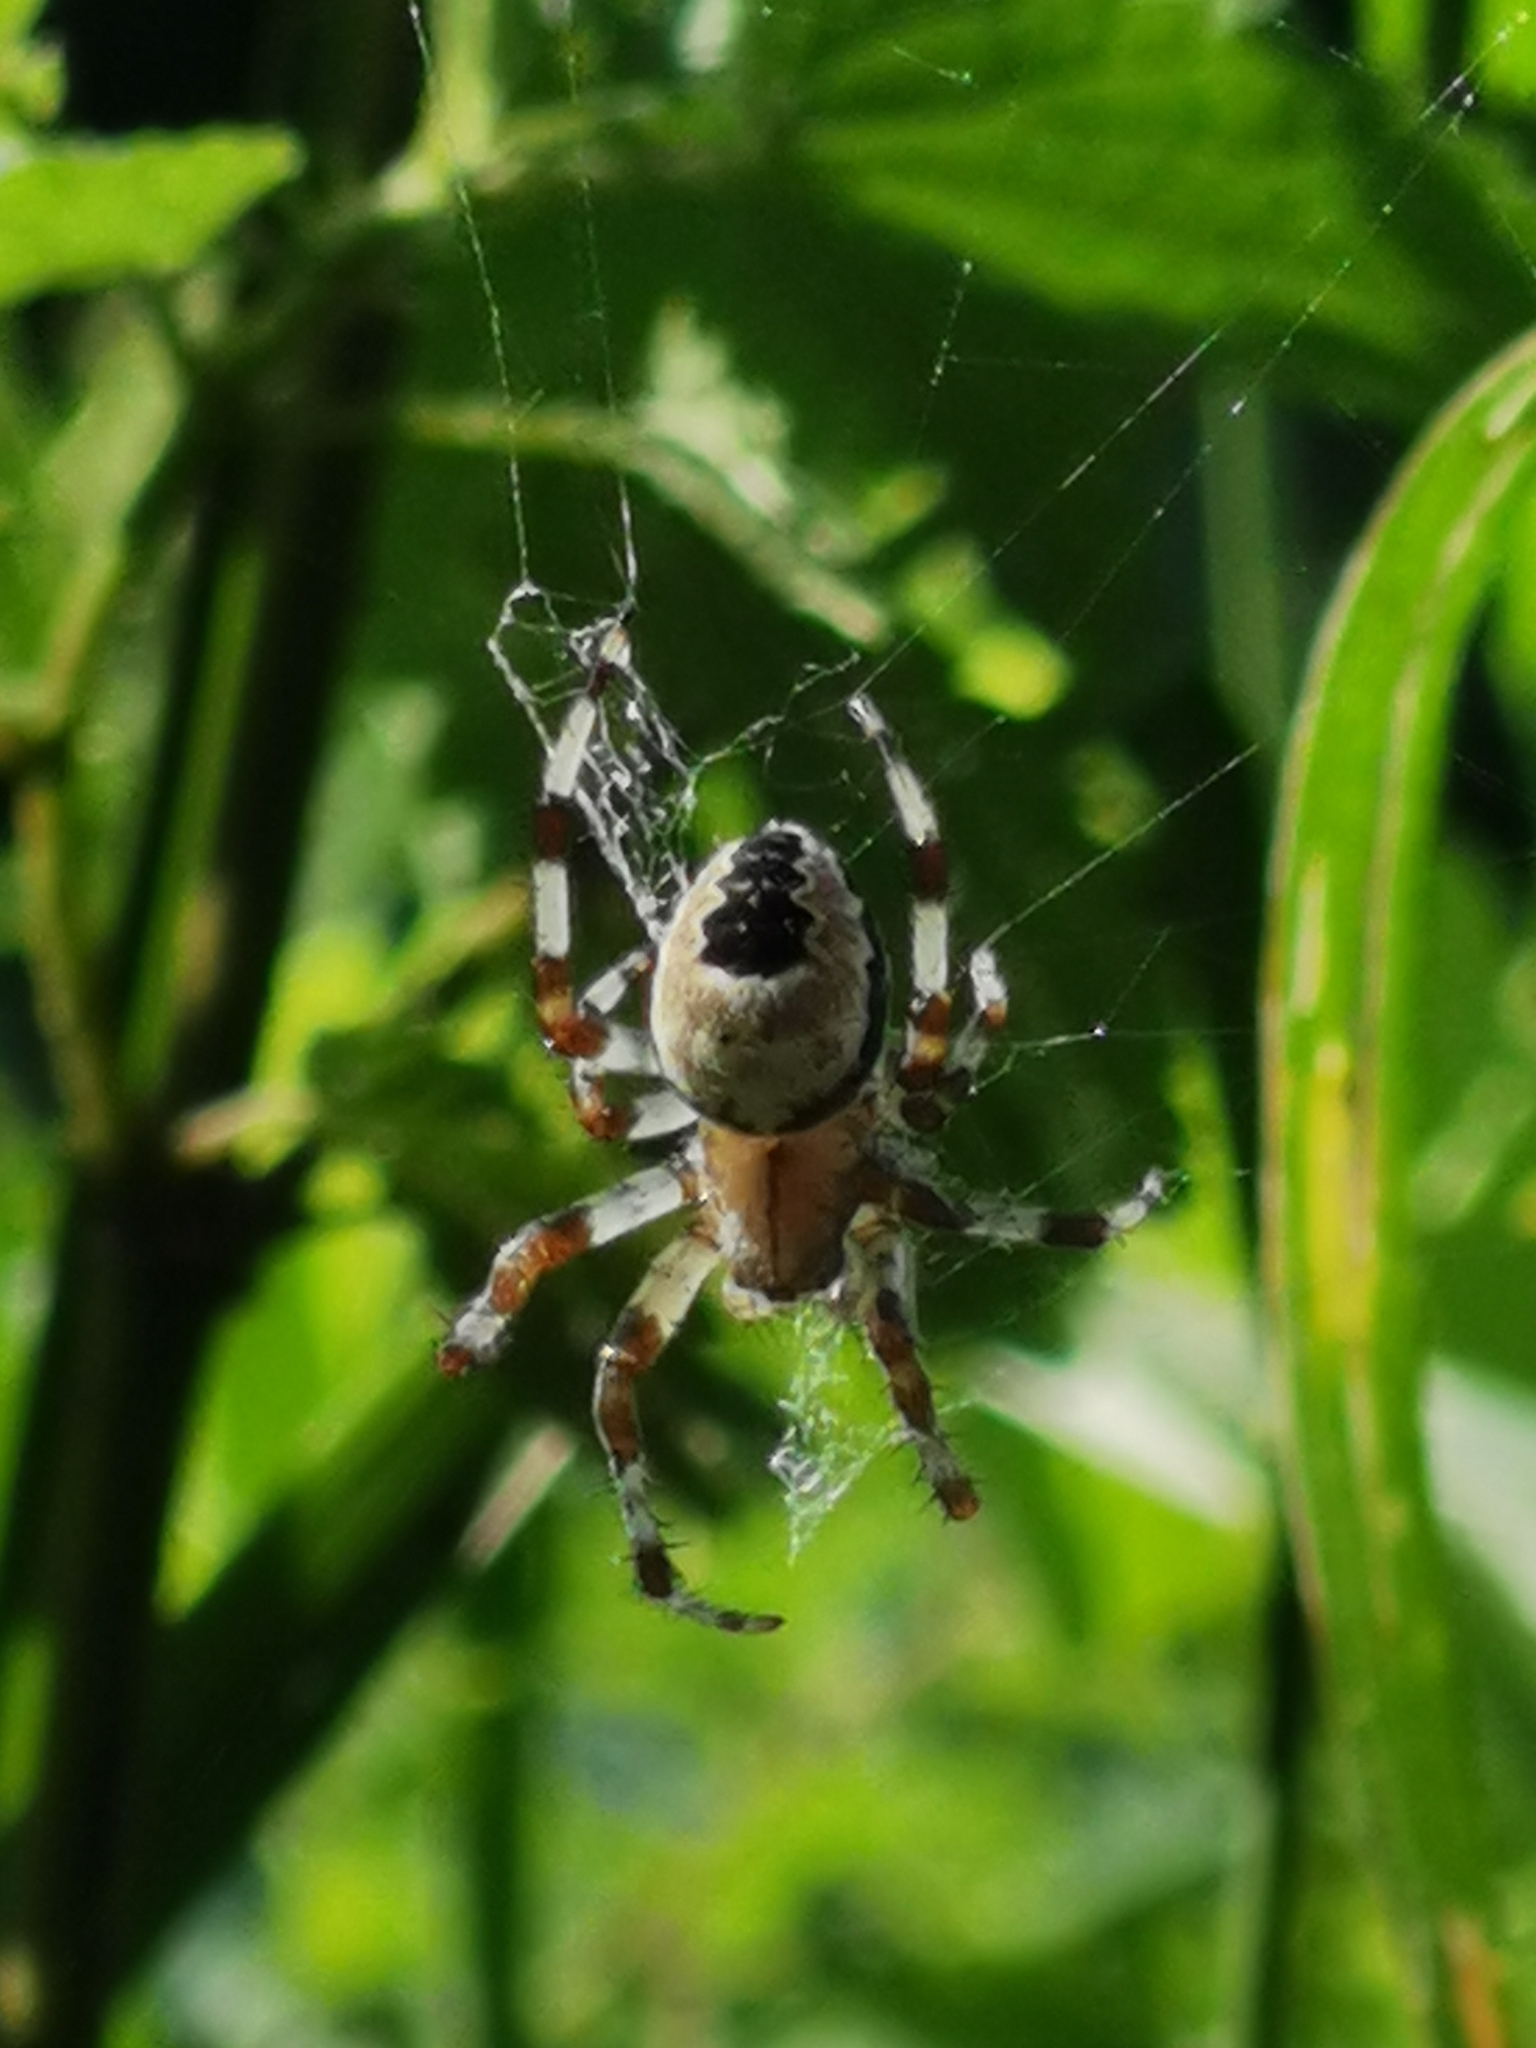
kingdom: Animalia
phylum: Arthropoda
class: Arachnida
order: Araneae
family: Araneidae
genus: Araneus
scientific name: Araneus marmoreus
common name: Marbled orbweaver
